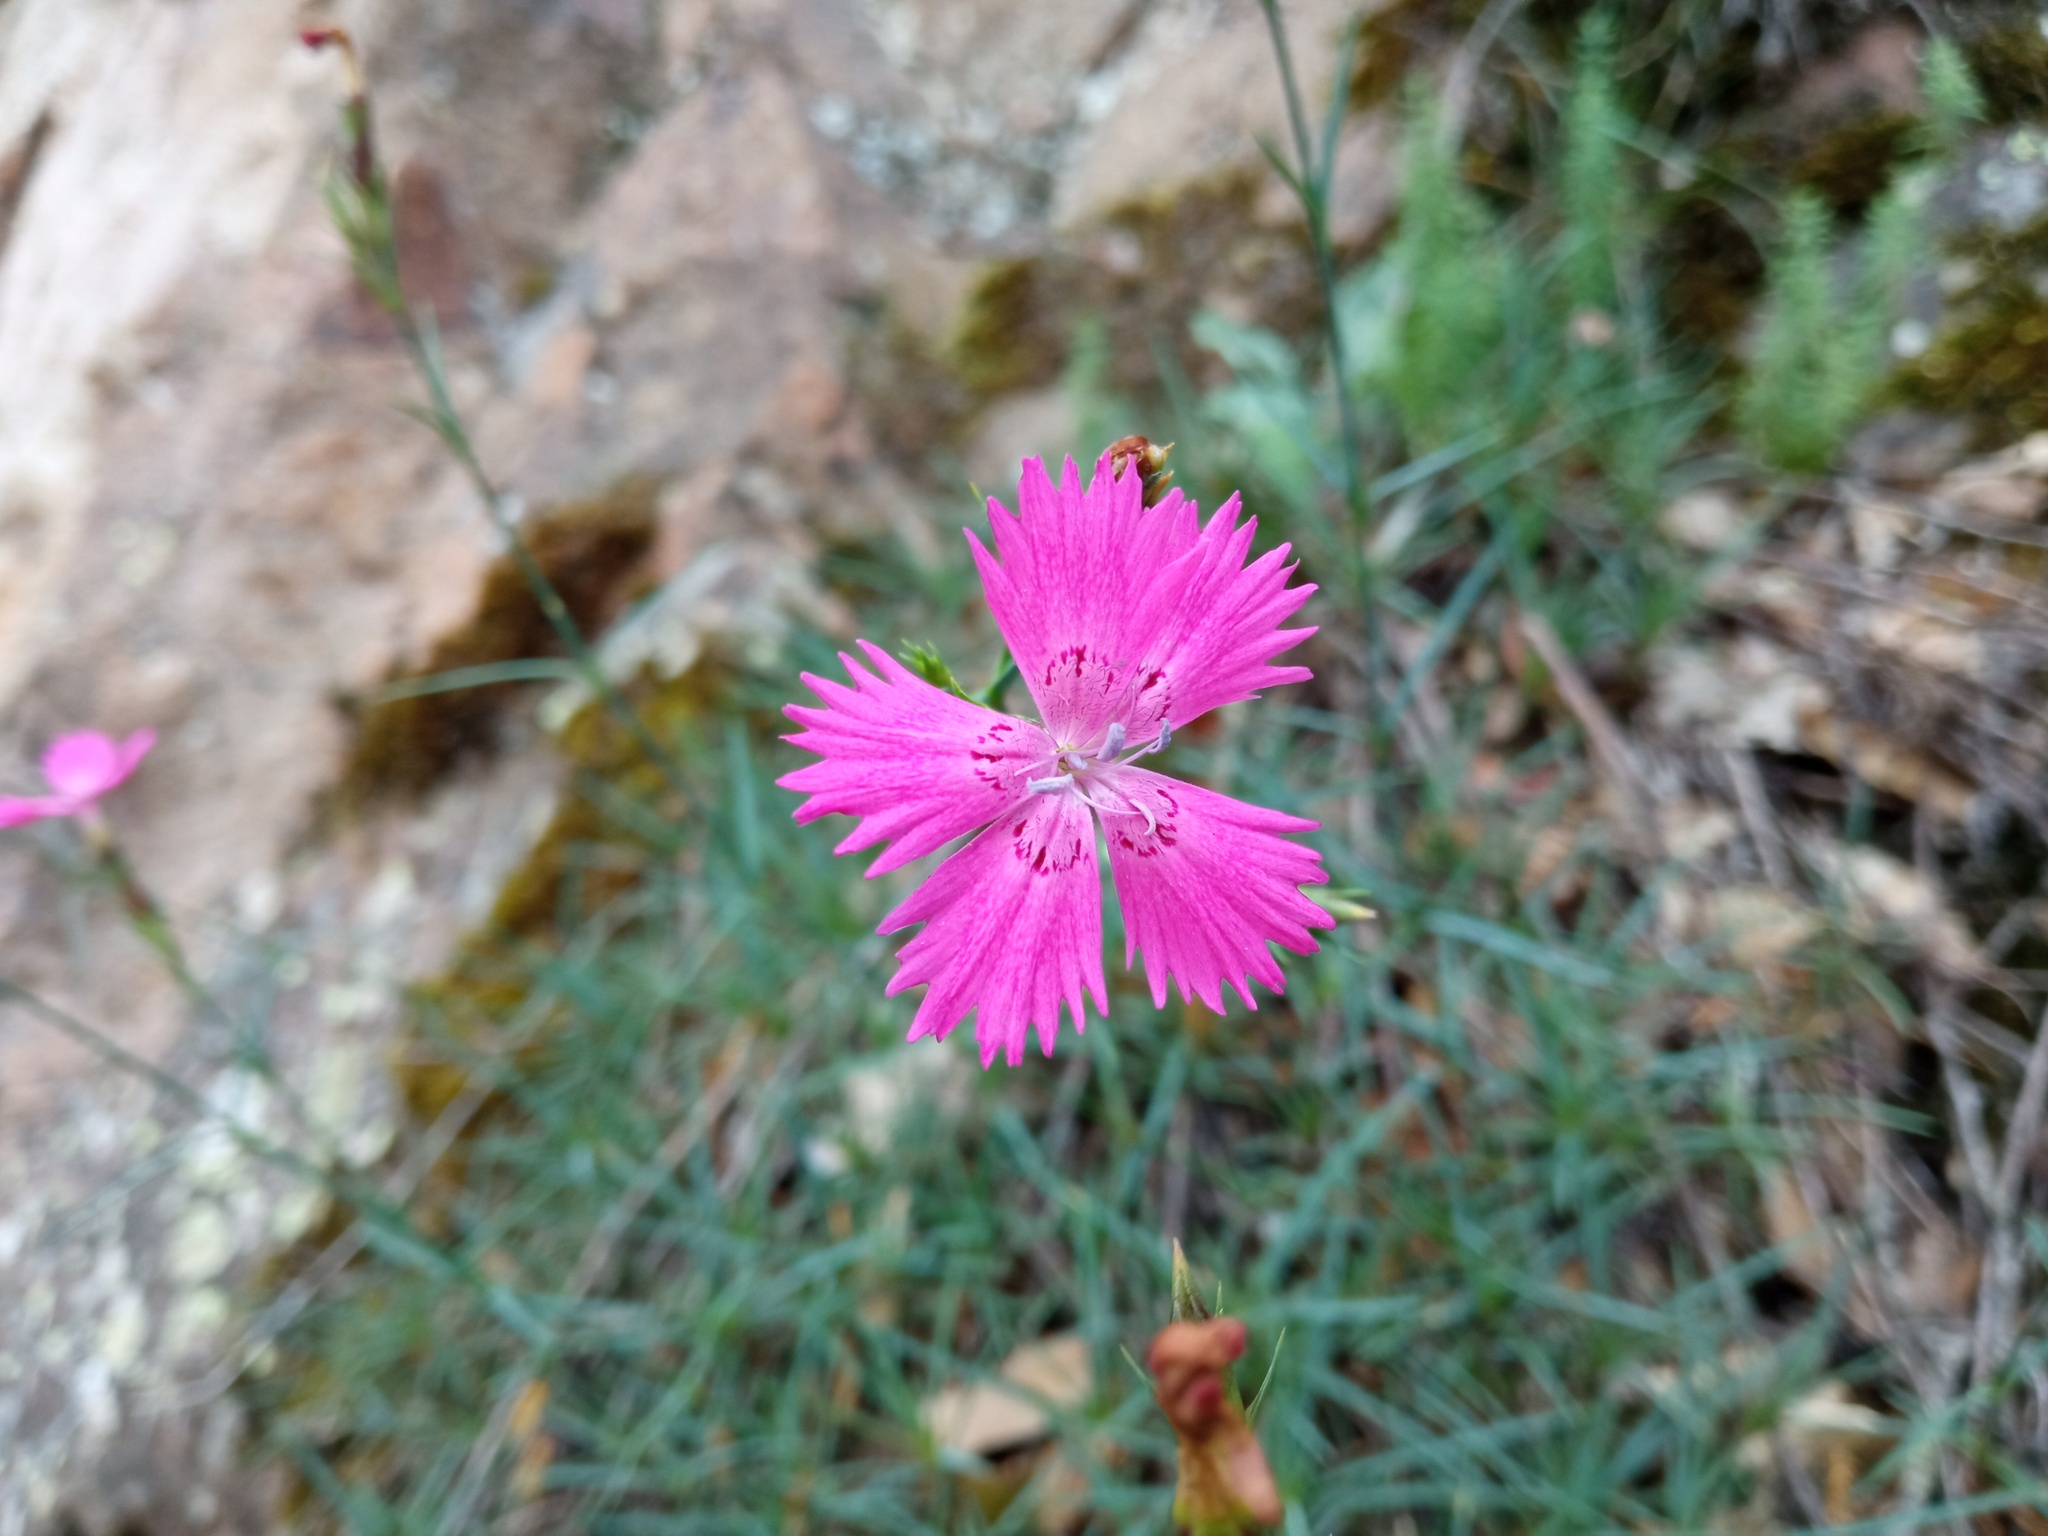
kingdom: Plantae
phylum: Tracheophyta
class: Magnoliopsida
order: Caryophyllales
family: Caryophyllaceae
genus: Dianthus
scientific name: Dianthus seguieri
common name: Ragged pink
